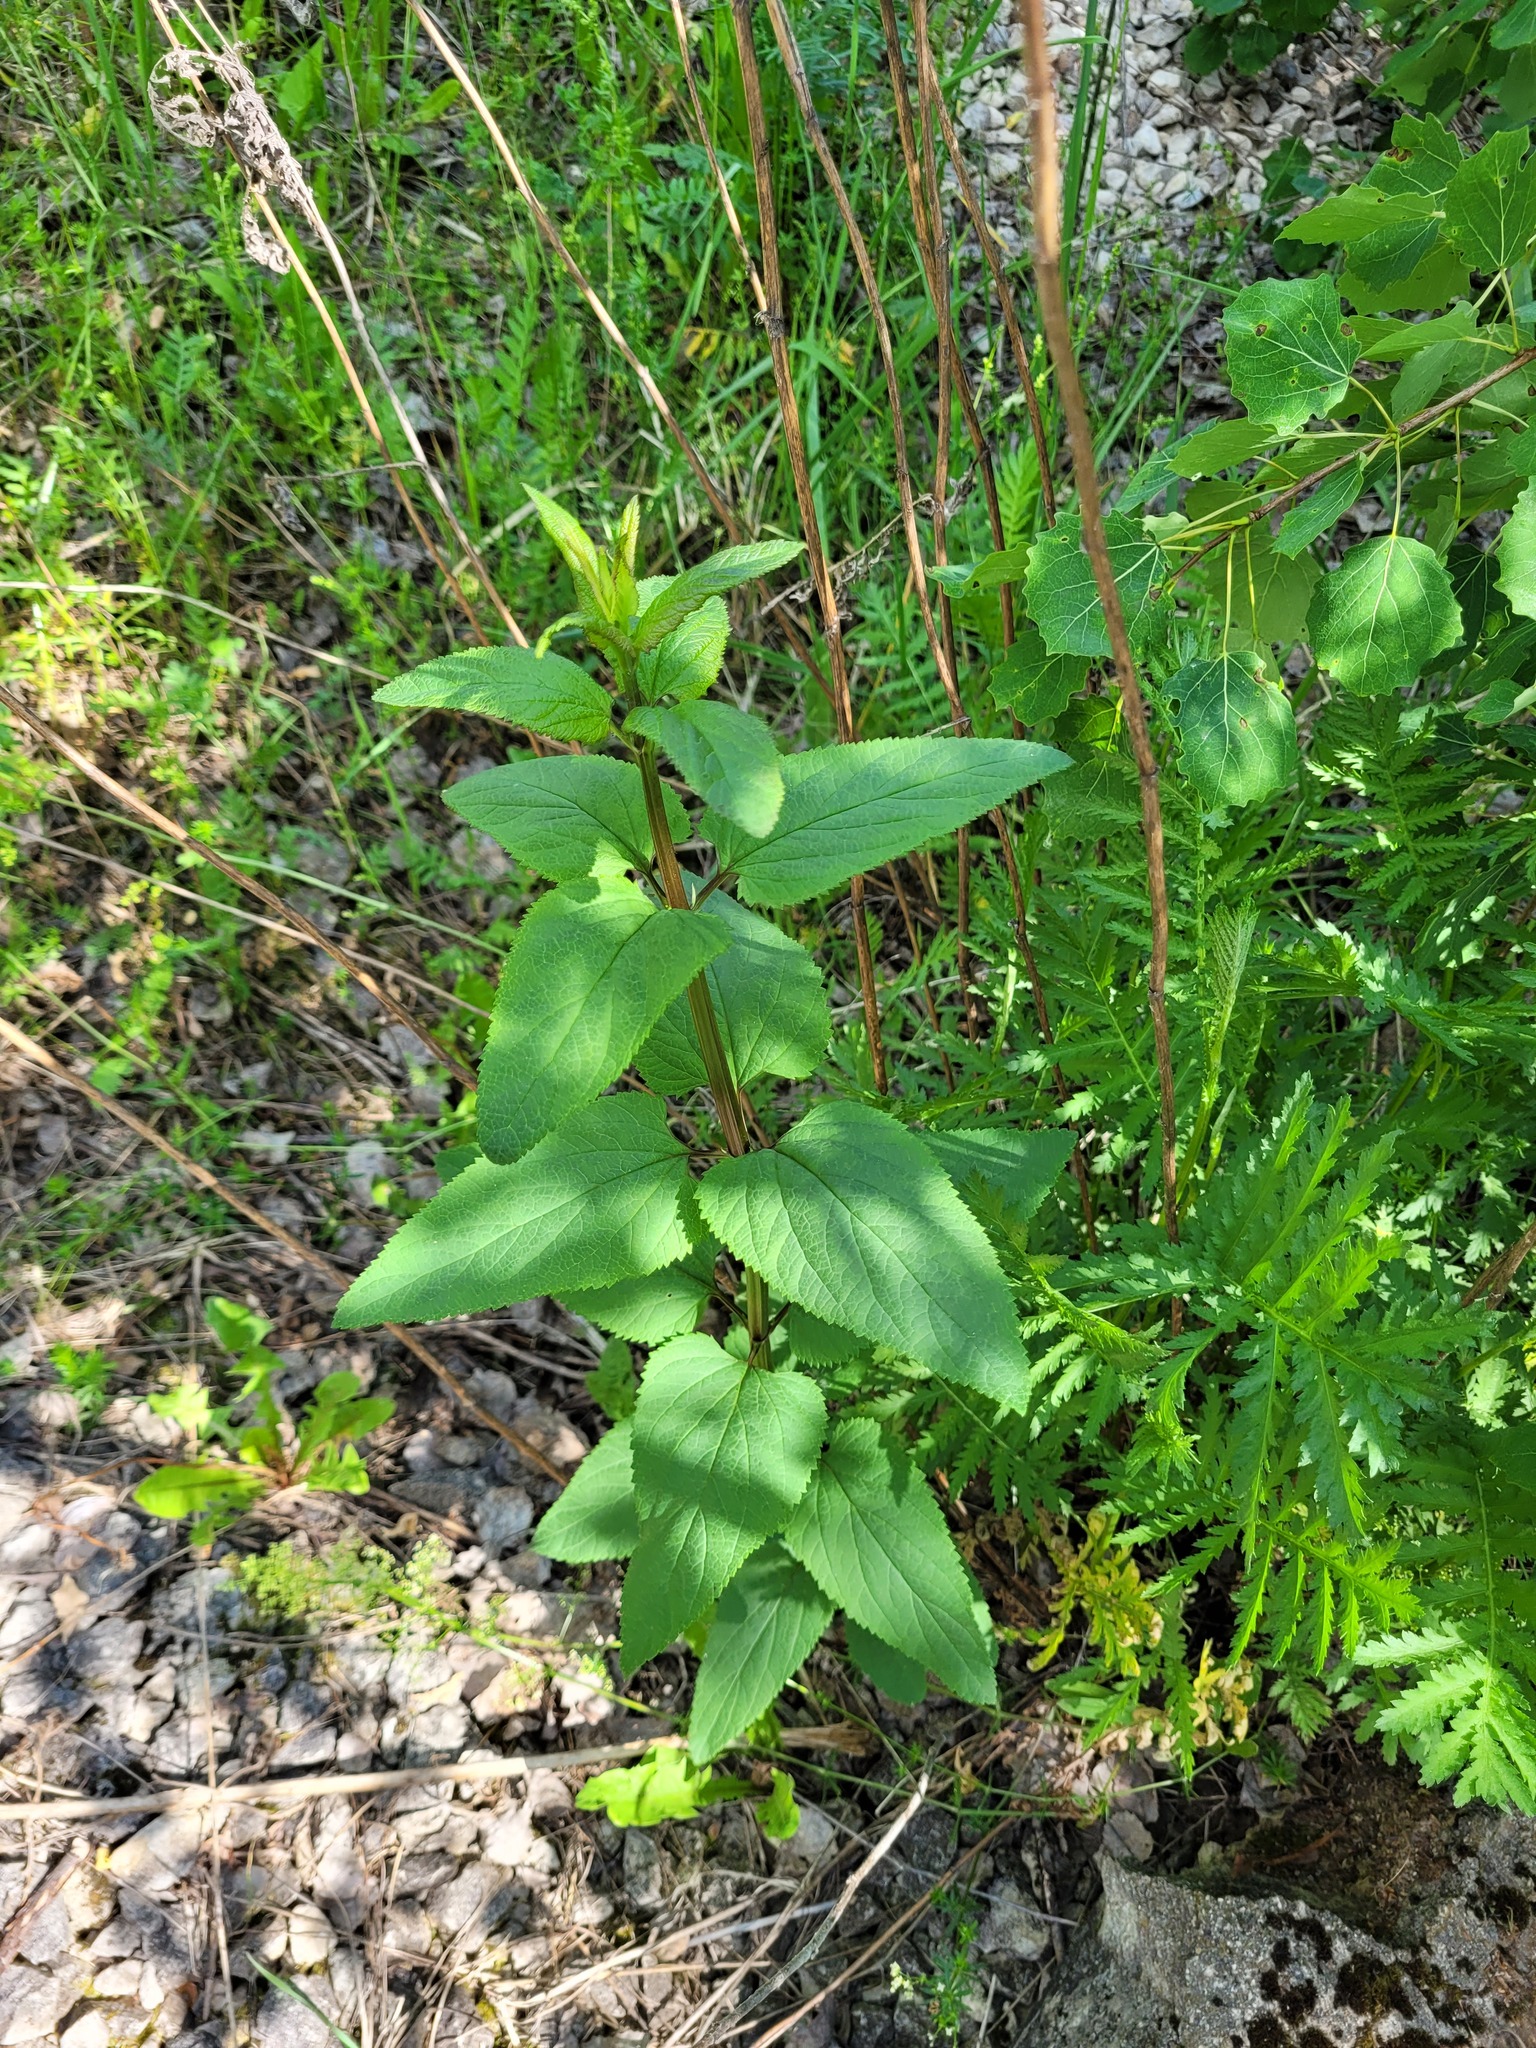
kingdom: Plantae
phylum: Tracheophyta
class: Magnoliopsida
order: Lamiales
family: Scrophulariaceae
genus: Scrophularia
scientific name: Scrophularia nodosa
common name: Common figwort
